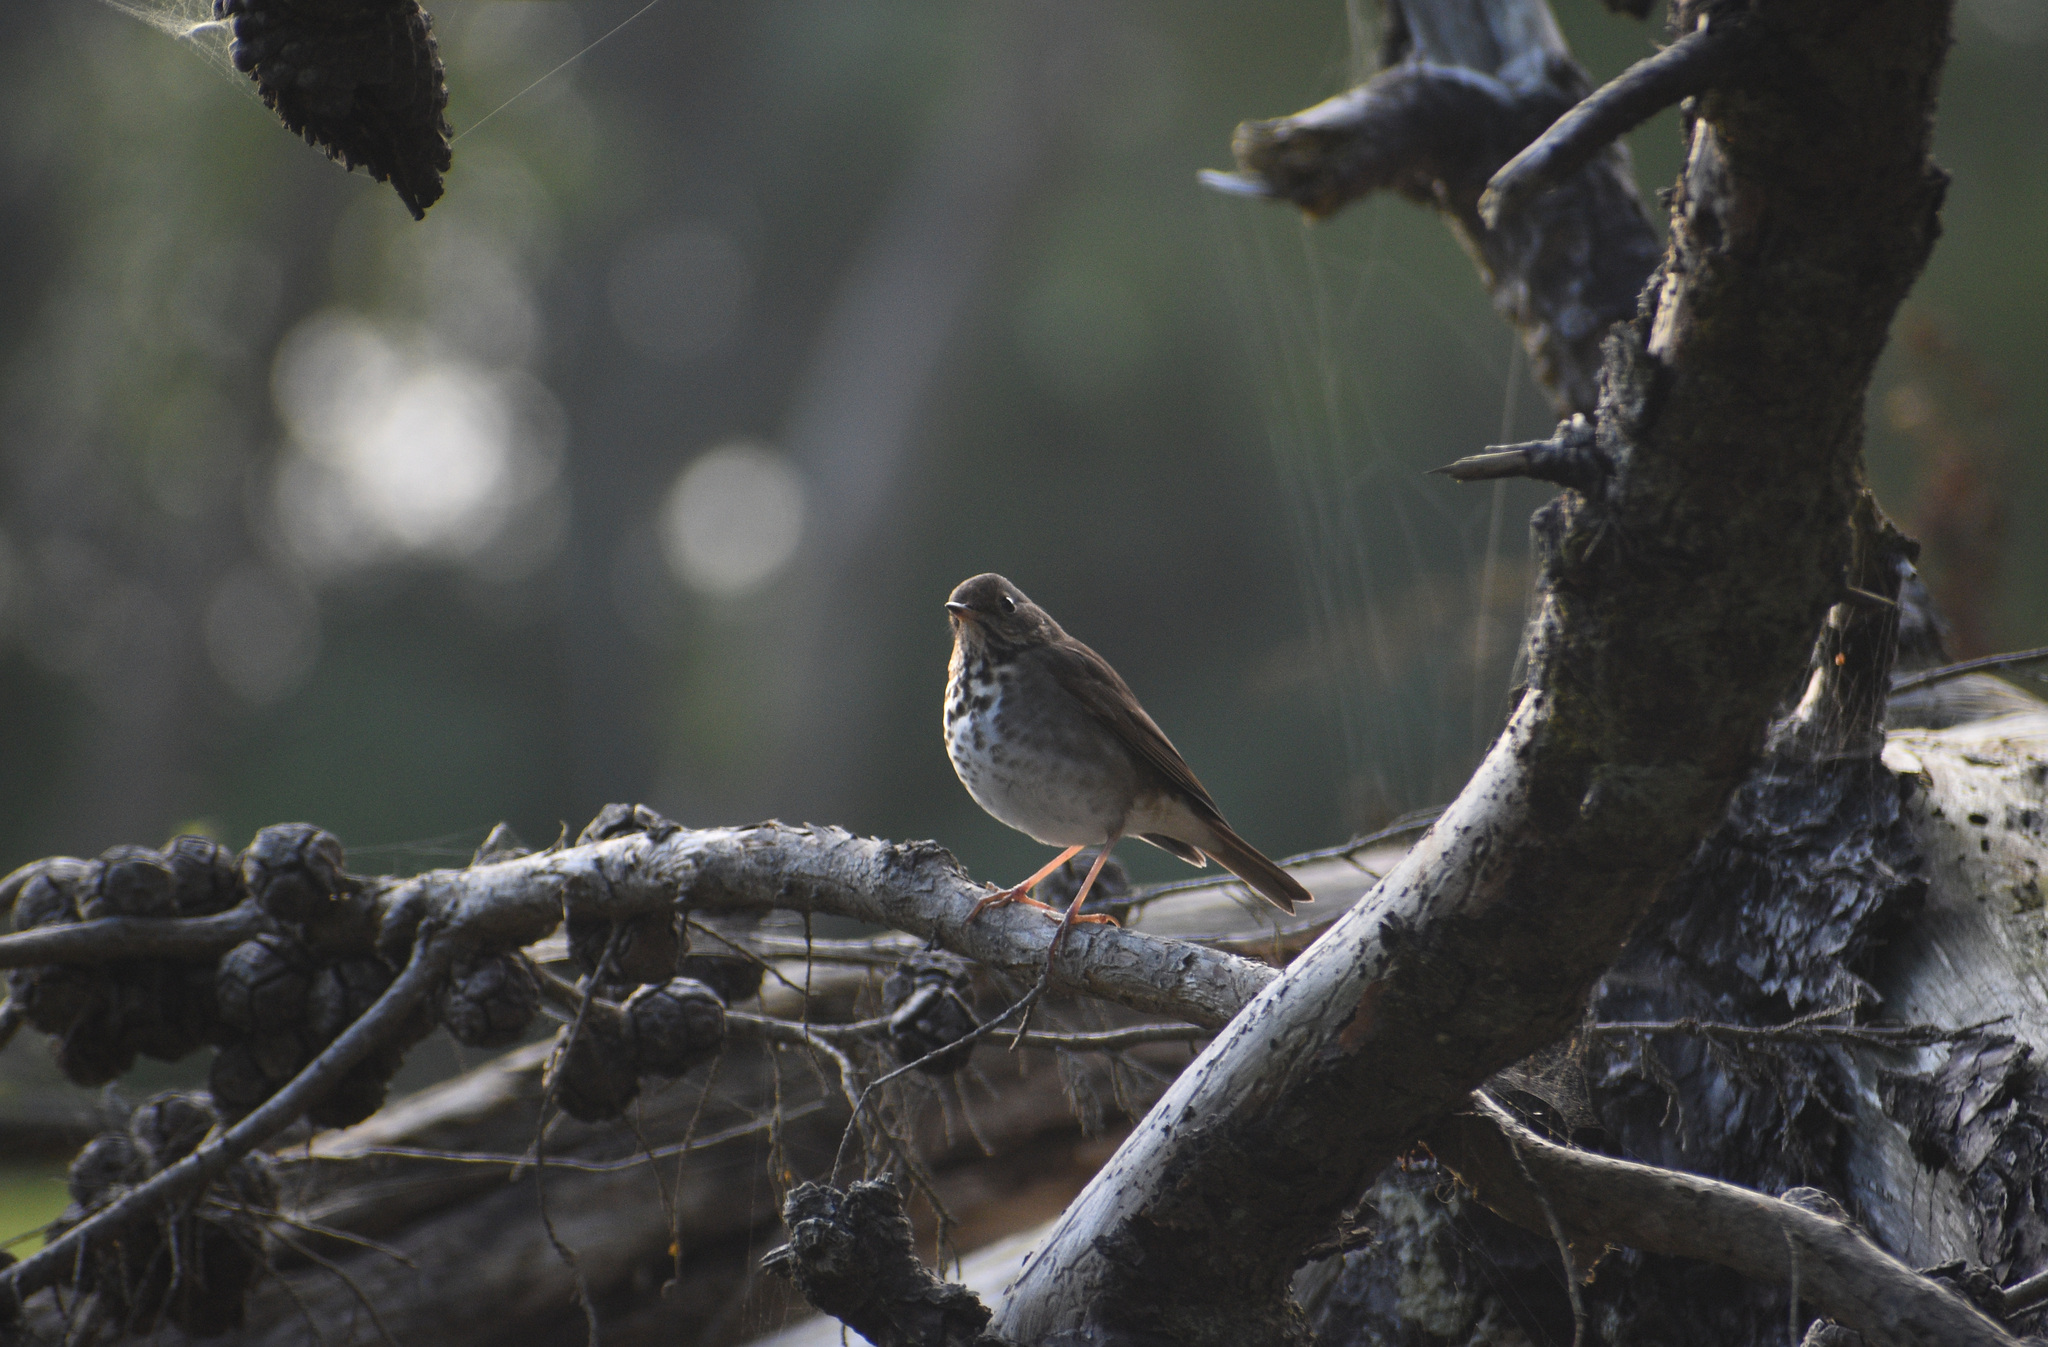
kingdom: Animalia
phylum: Chordata
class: Aves
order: Passeriformes
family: Turdidae
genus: Catharus
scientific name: Catharus guttatus
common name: Hermit thrush
